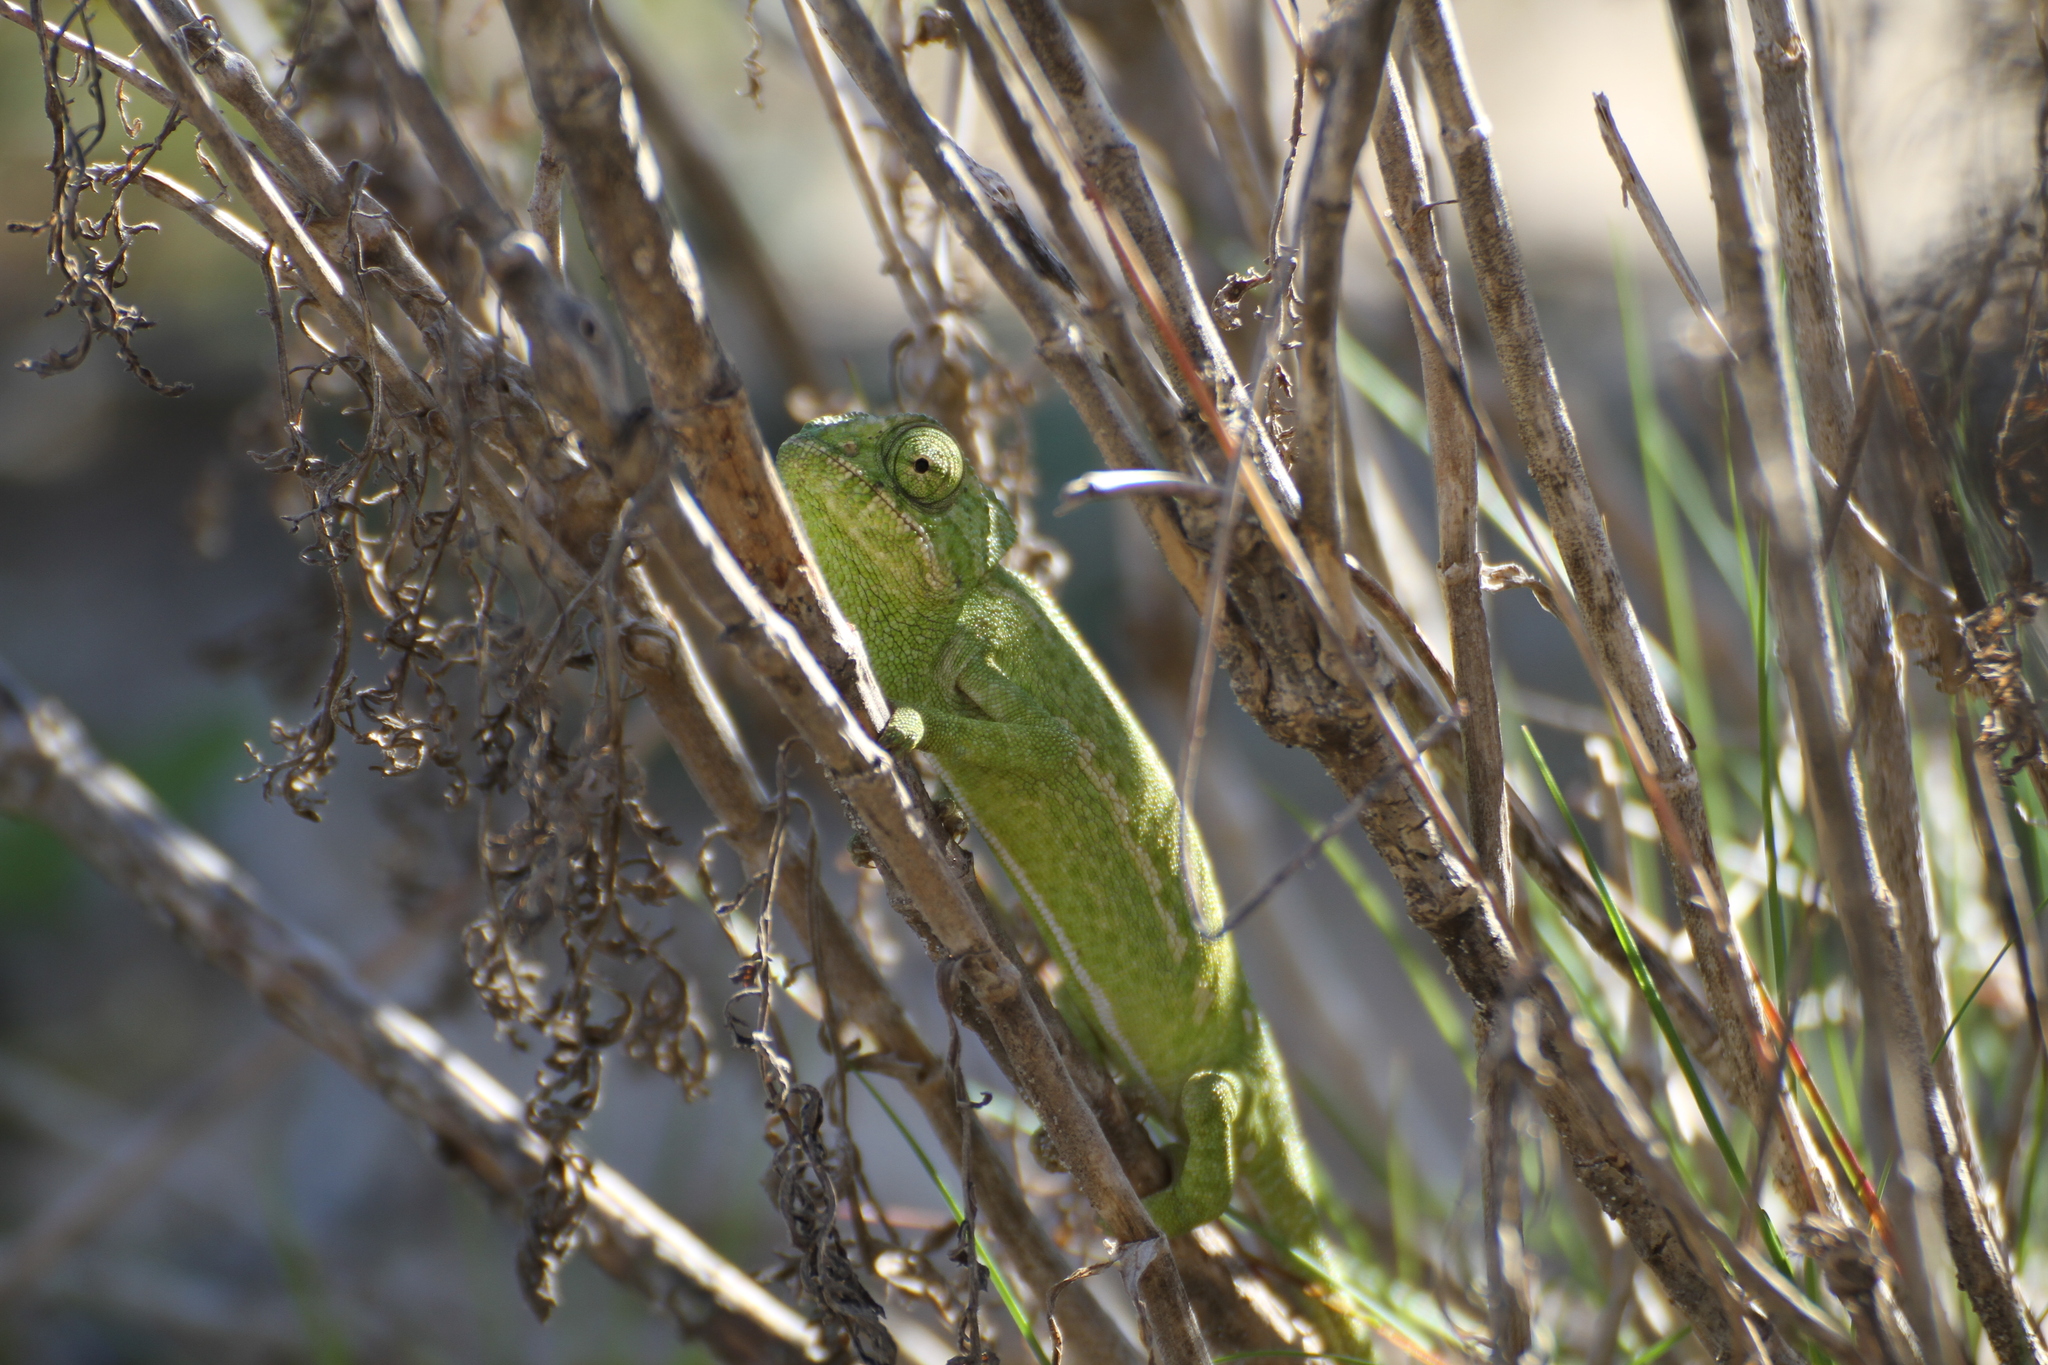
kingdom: Animalia
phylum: Chordata
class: Squamata
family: Chamaeleonidae
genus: Chamaeleo
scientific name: Chamaeleo chamaeleon
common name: Mediterranean chameleon
